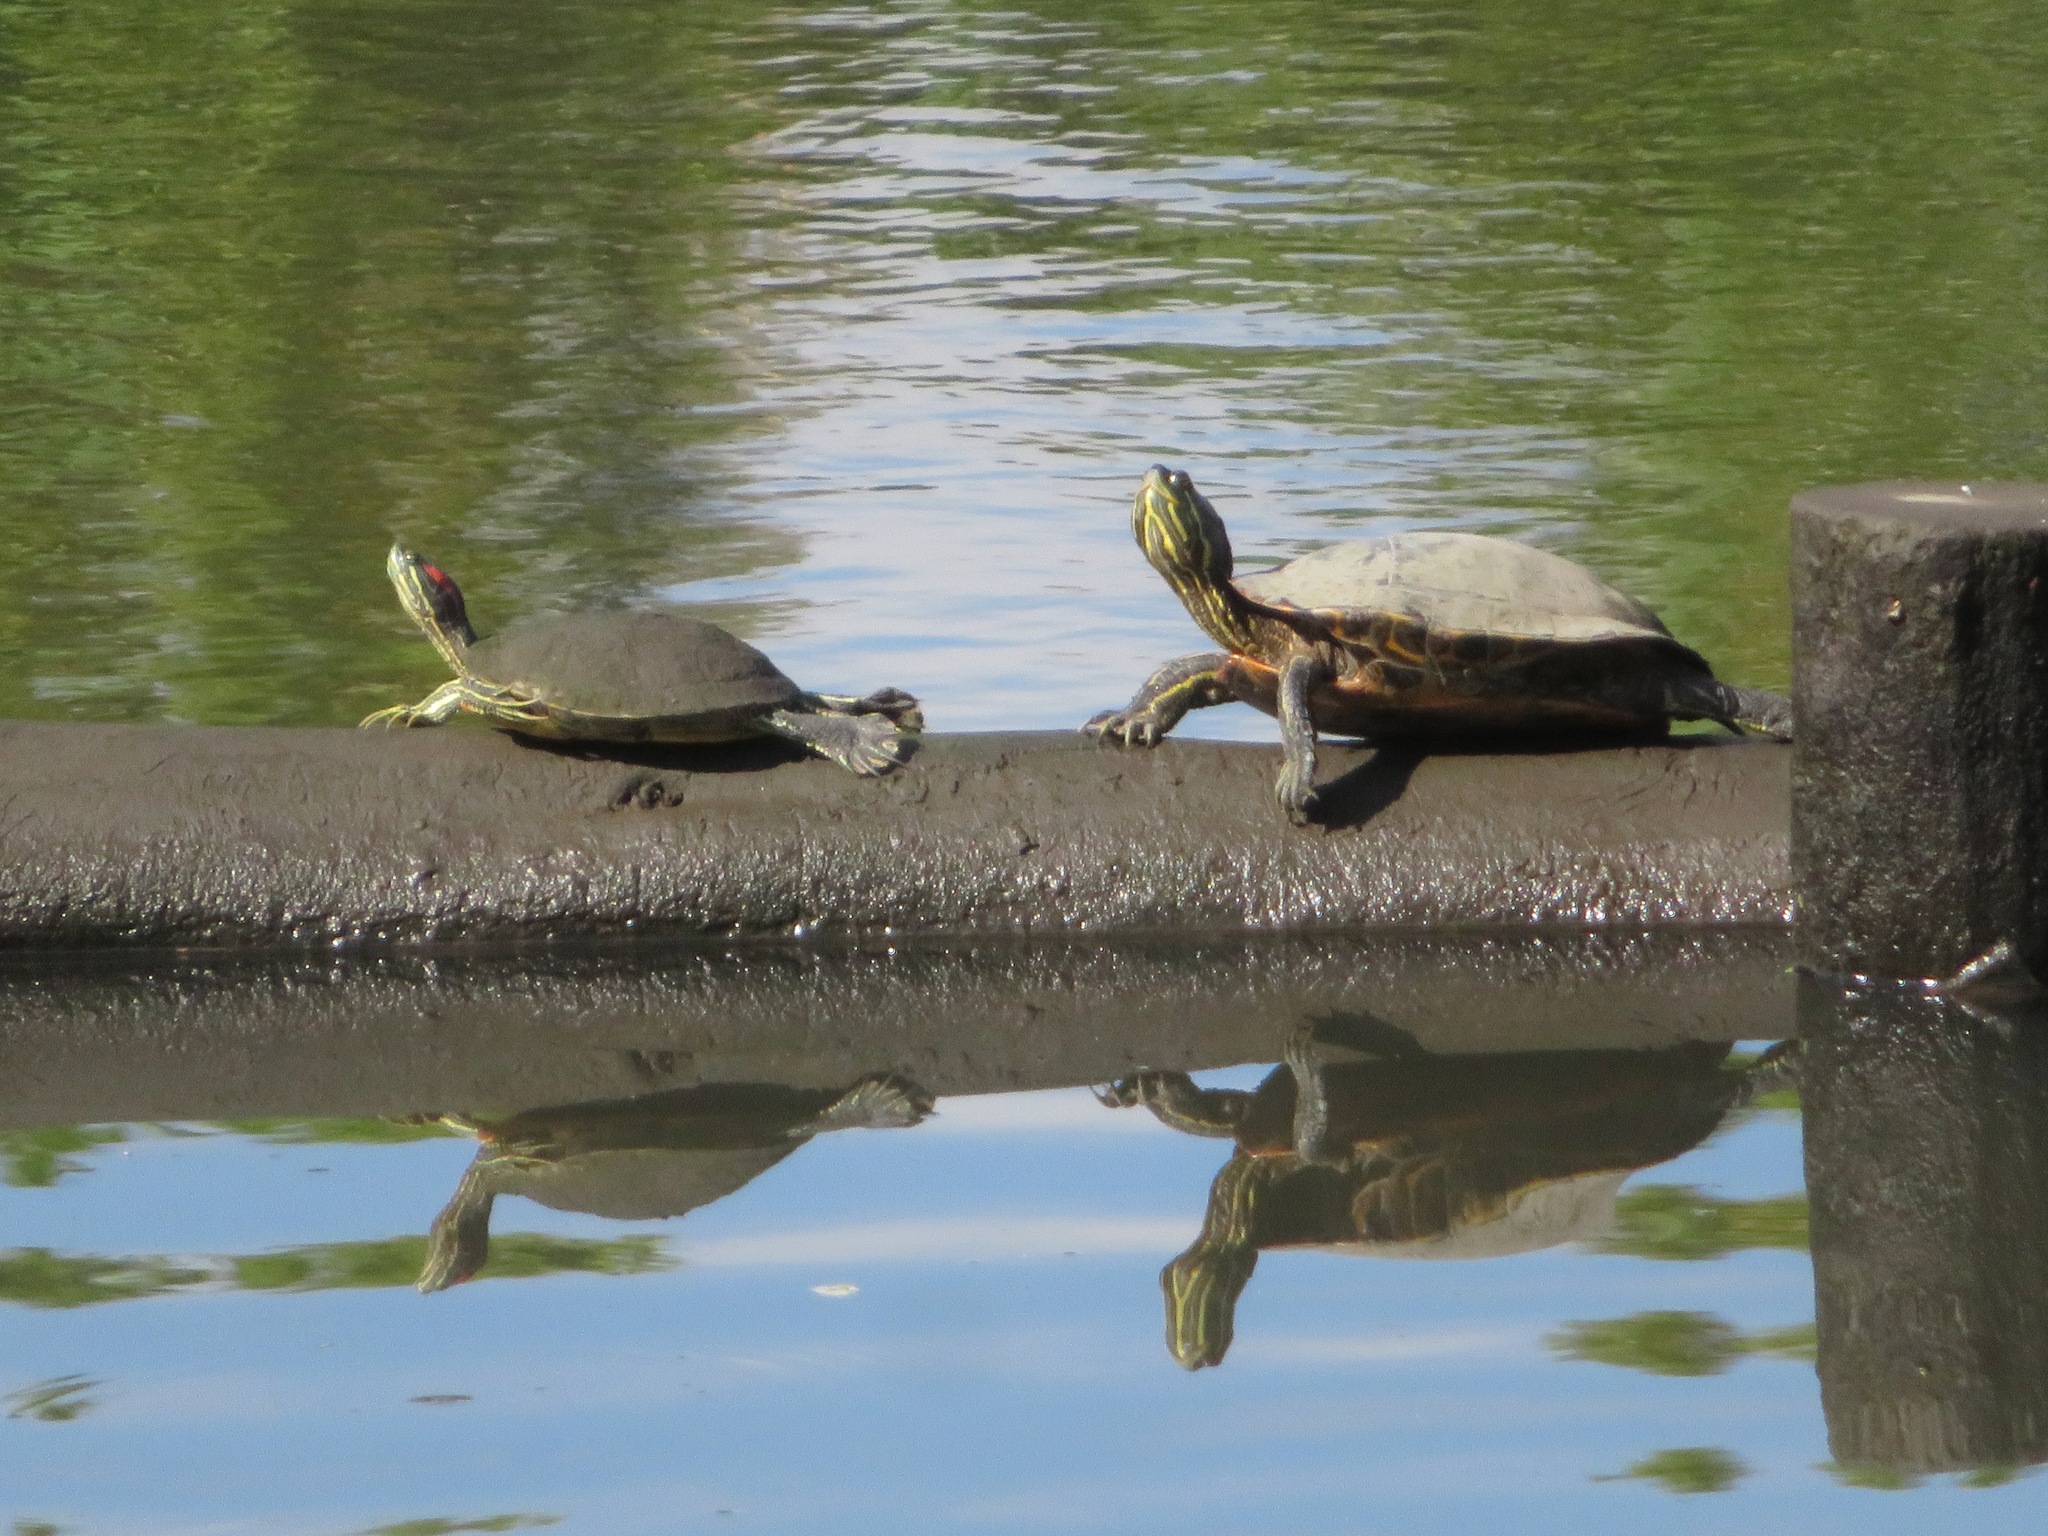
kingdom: Animalia
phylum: Chordata
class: Testudines
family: Emydidae
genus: Trachemys
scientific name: Trachemys scripta
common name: Slider
